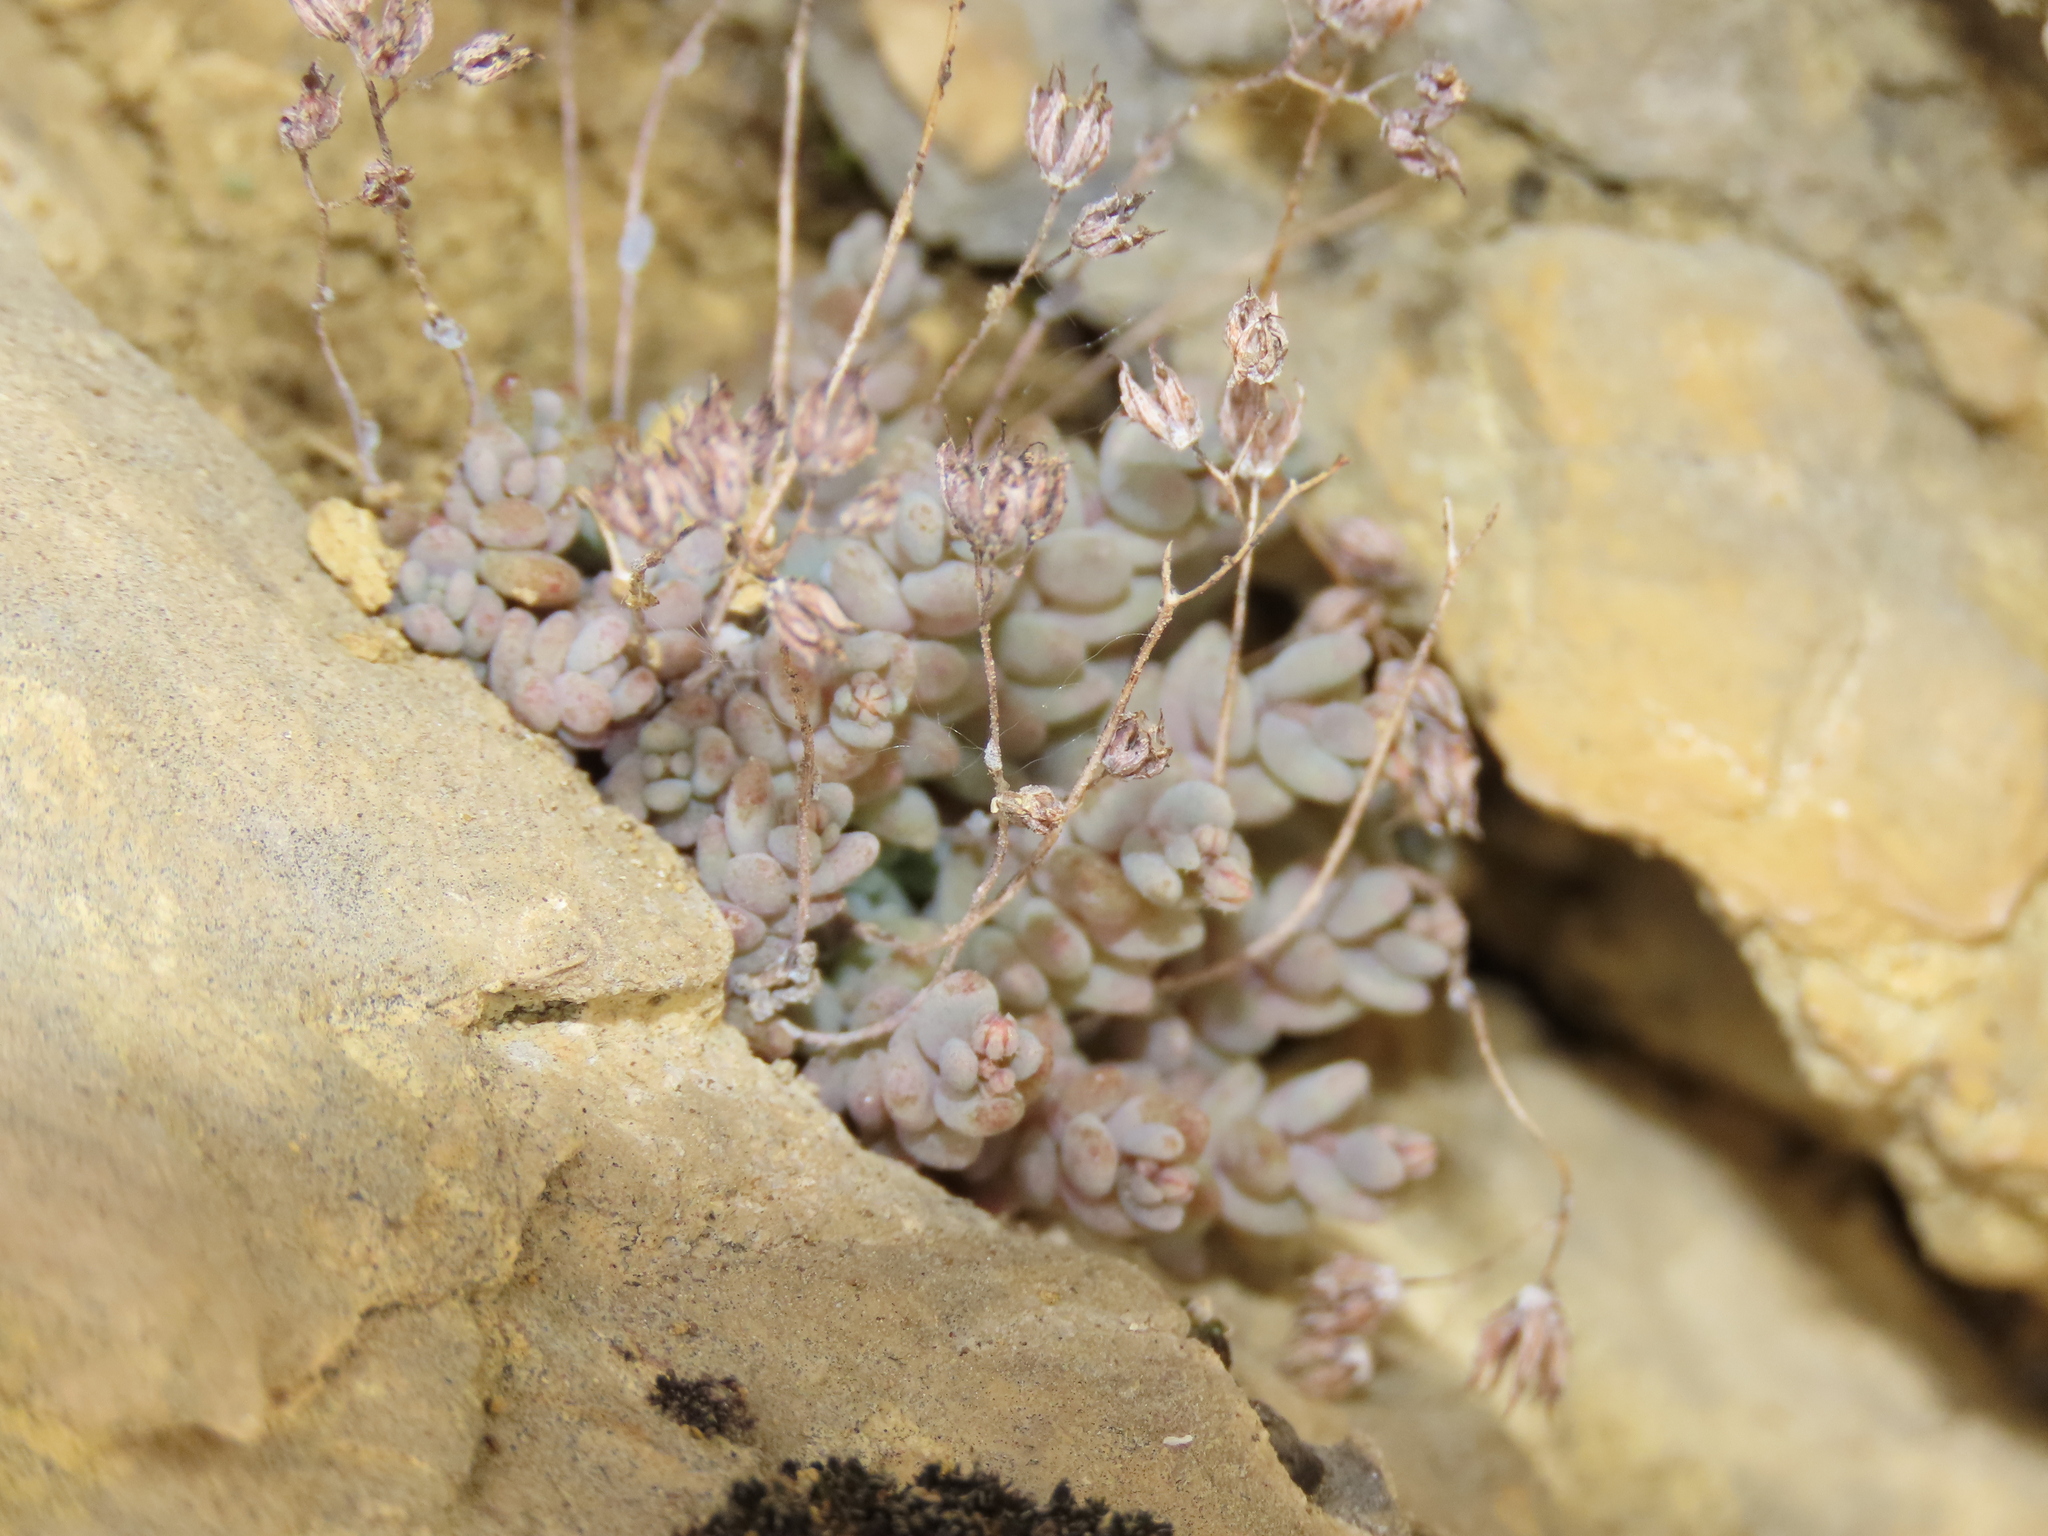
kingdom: Plantae
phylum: Tracheophyta
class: Magnoliopsida
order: Saxifragales
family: Crassulaceae
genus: Sedum
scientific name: Sedum dasyphyllum
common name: Thick-leaf stonecrop
